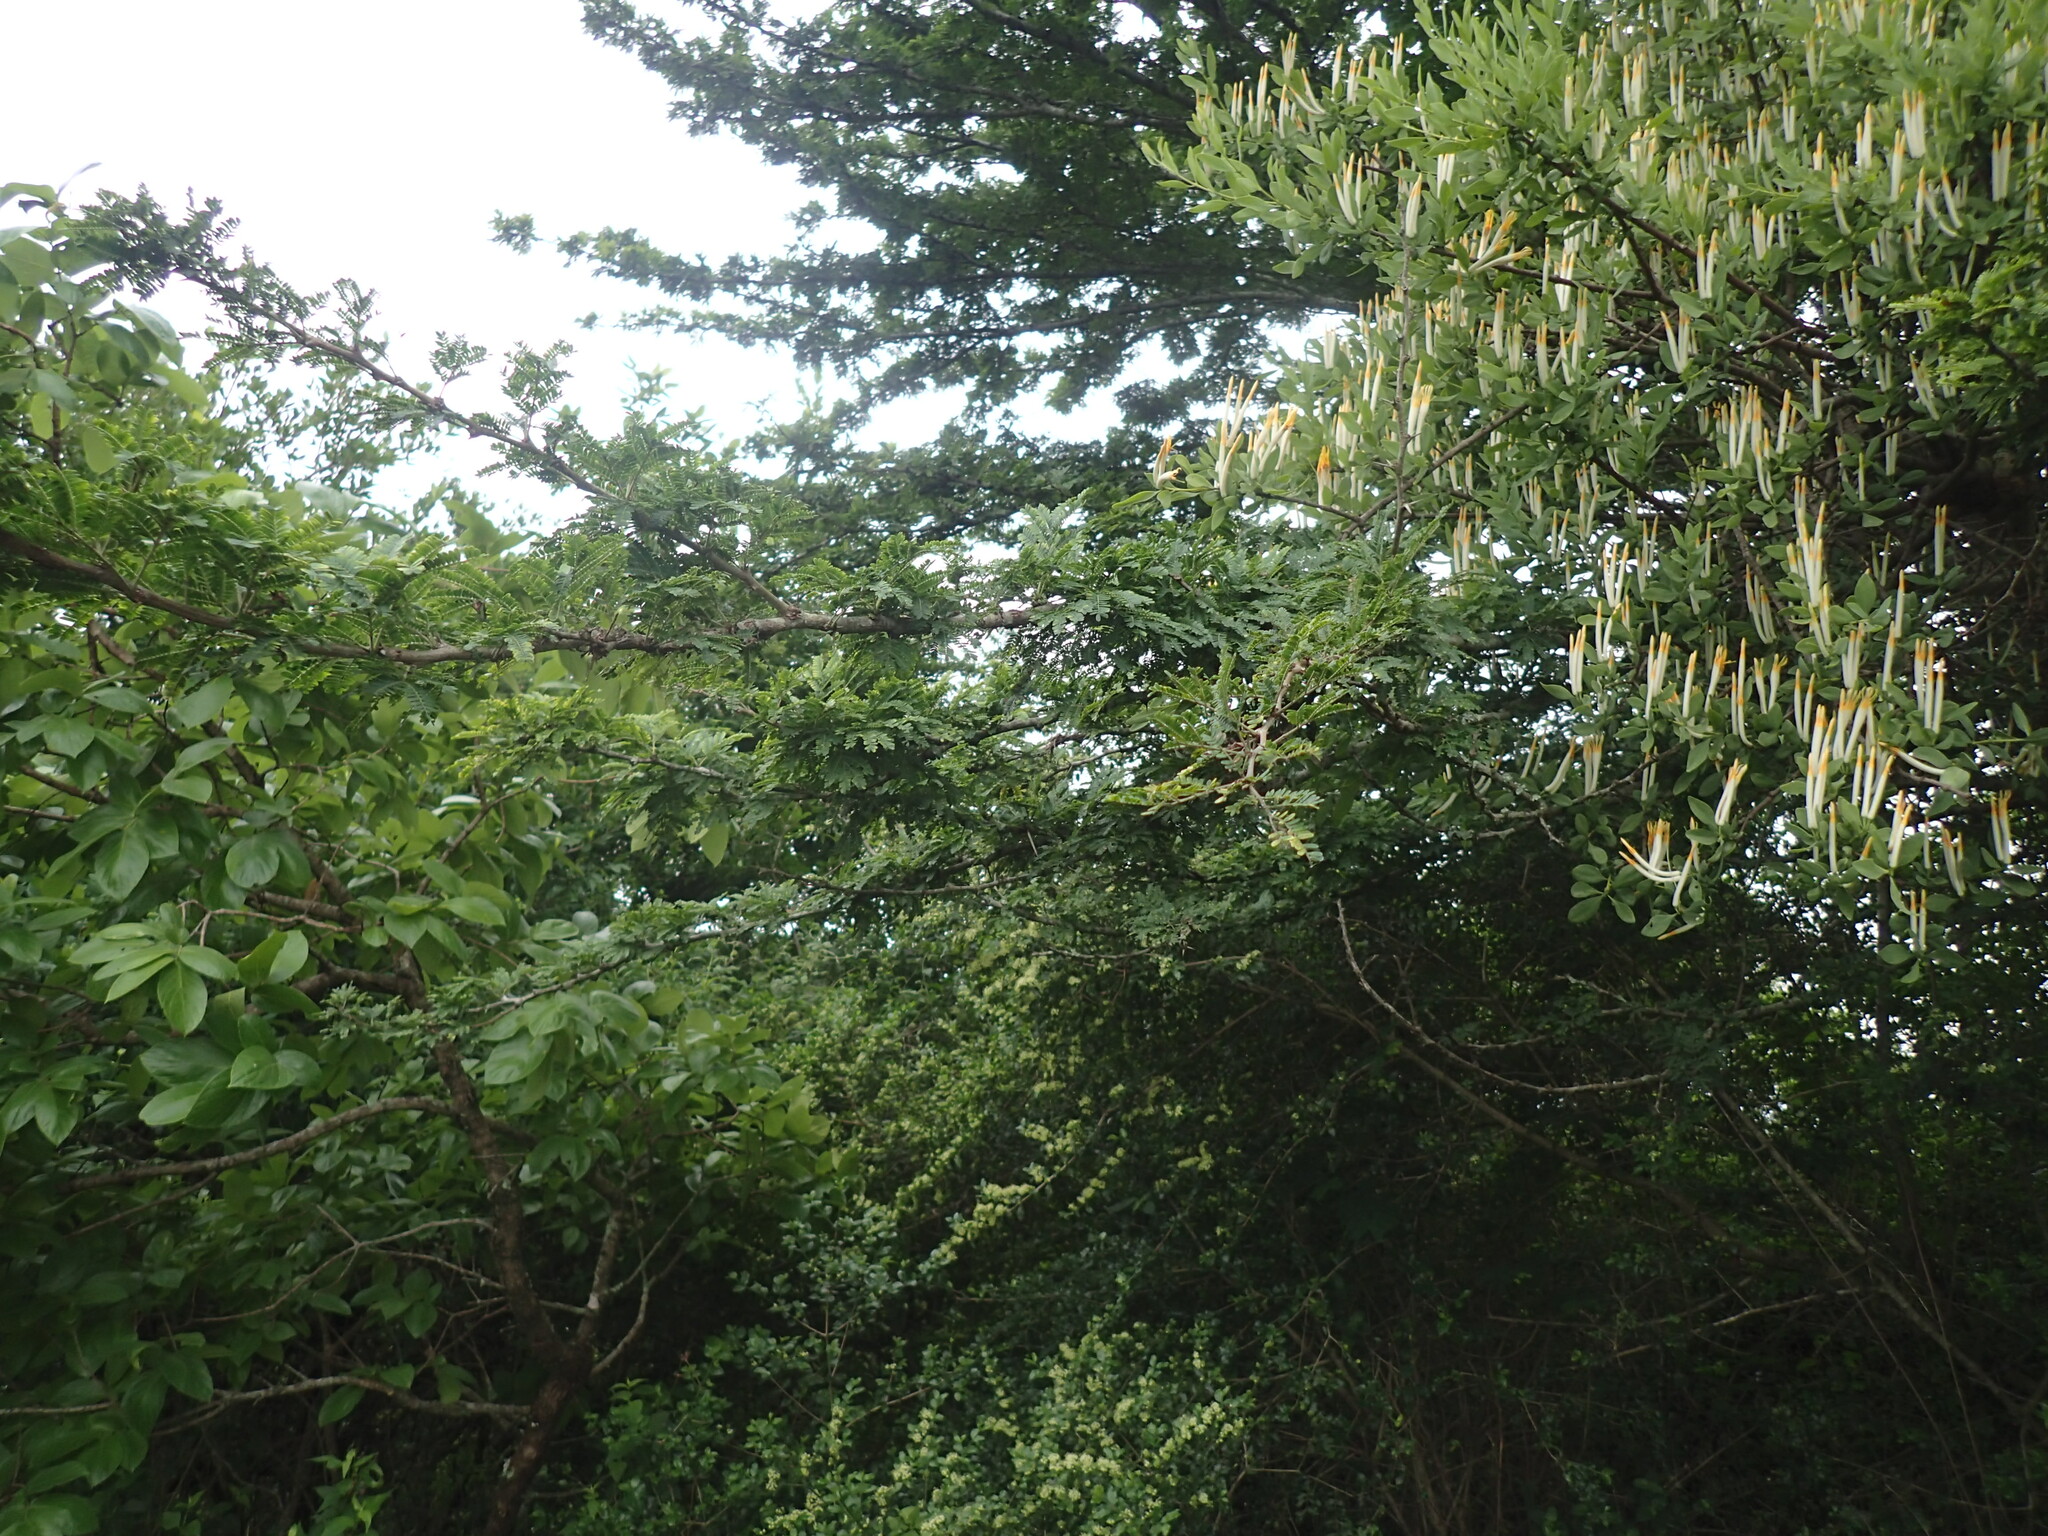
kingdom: Plantae
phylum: Tracheophyta
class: Magnoliopsida
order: Fabales
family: Fabaceae
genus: Vachellia
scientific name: Vachellia robusta
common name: Ankle thorn
